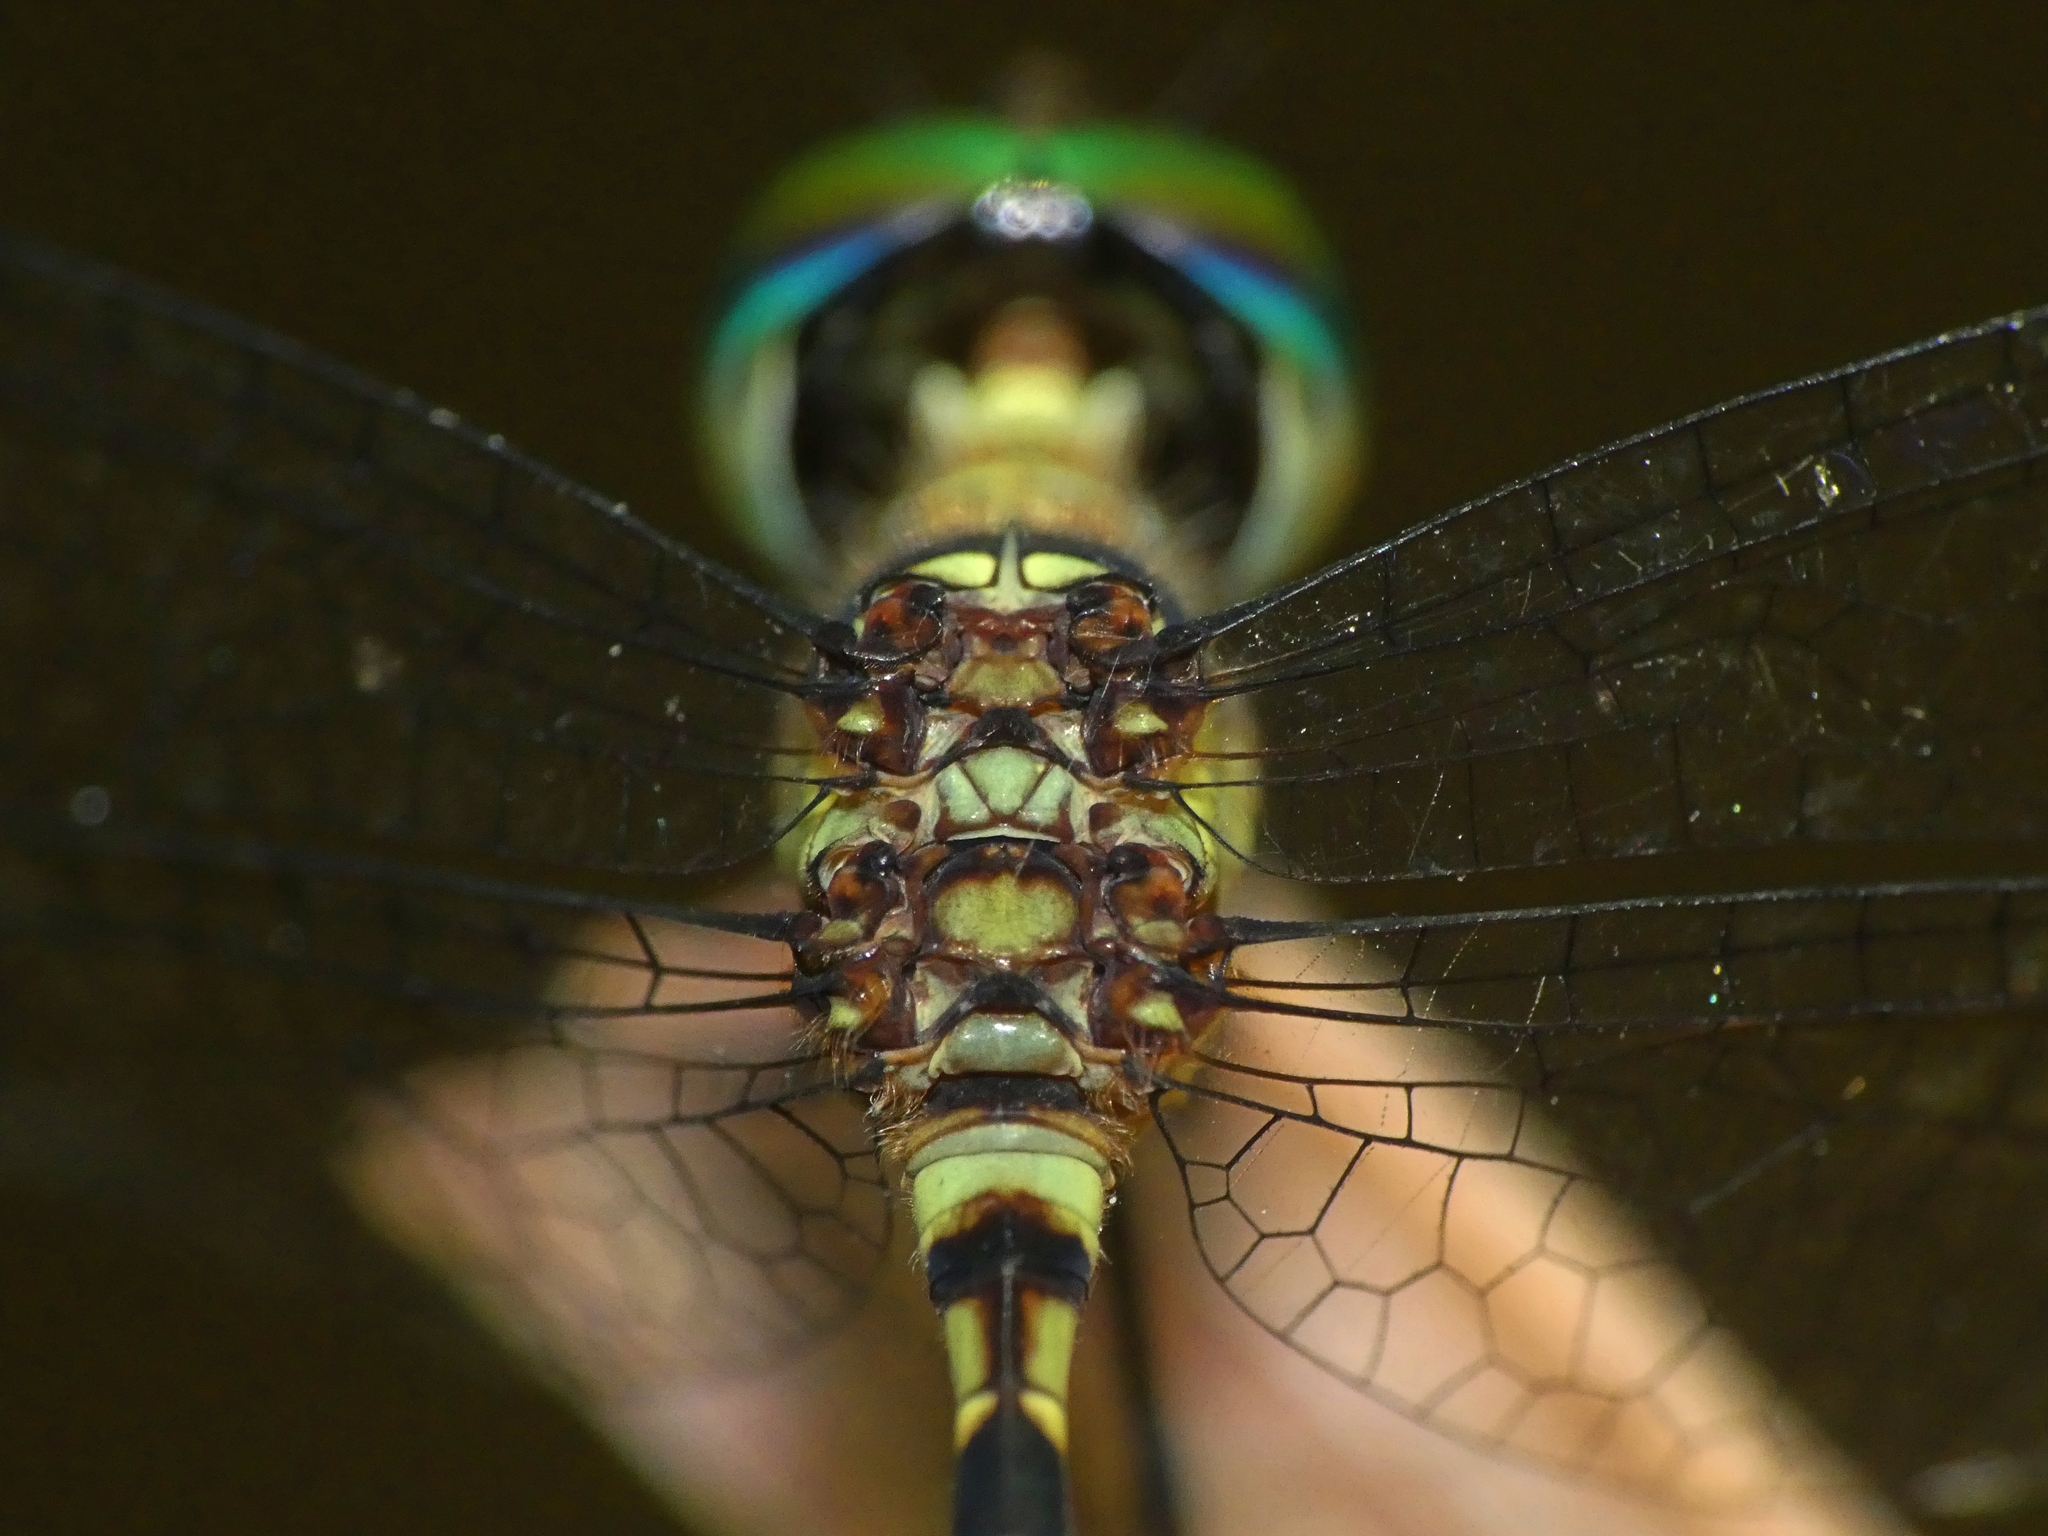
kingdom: Animalia
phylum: Arthropoda
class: Insecta
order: Odonata
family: Libellulidae
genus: Tetrathemis
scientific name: Tetrathemis irregularis
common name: Elf
